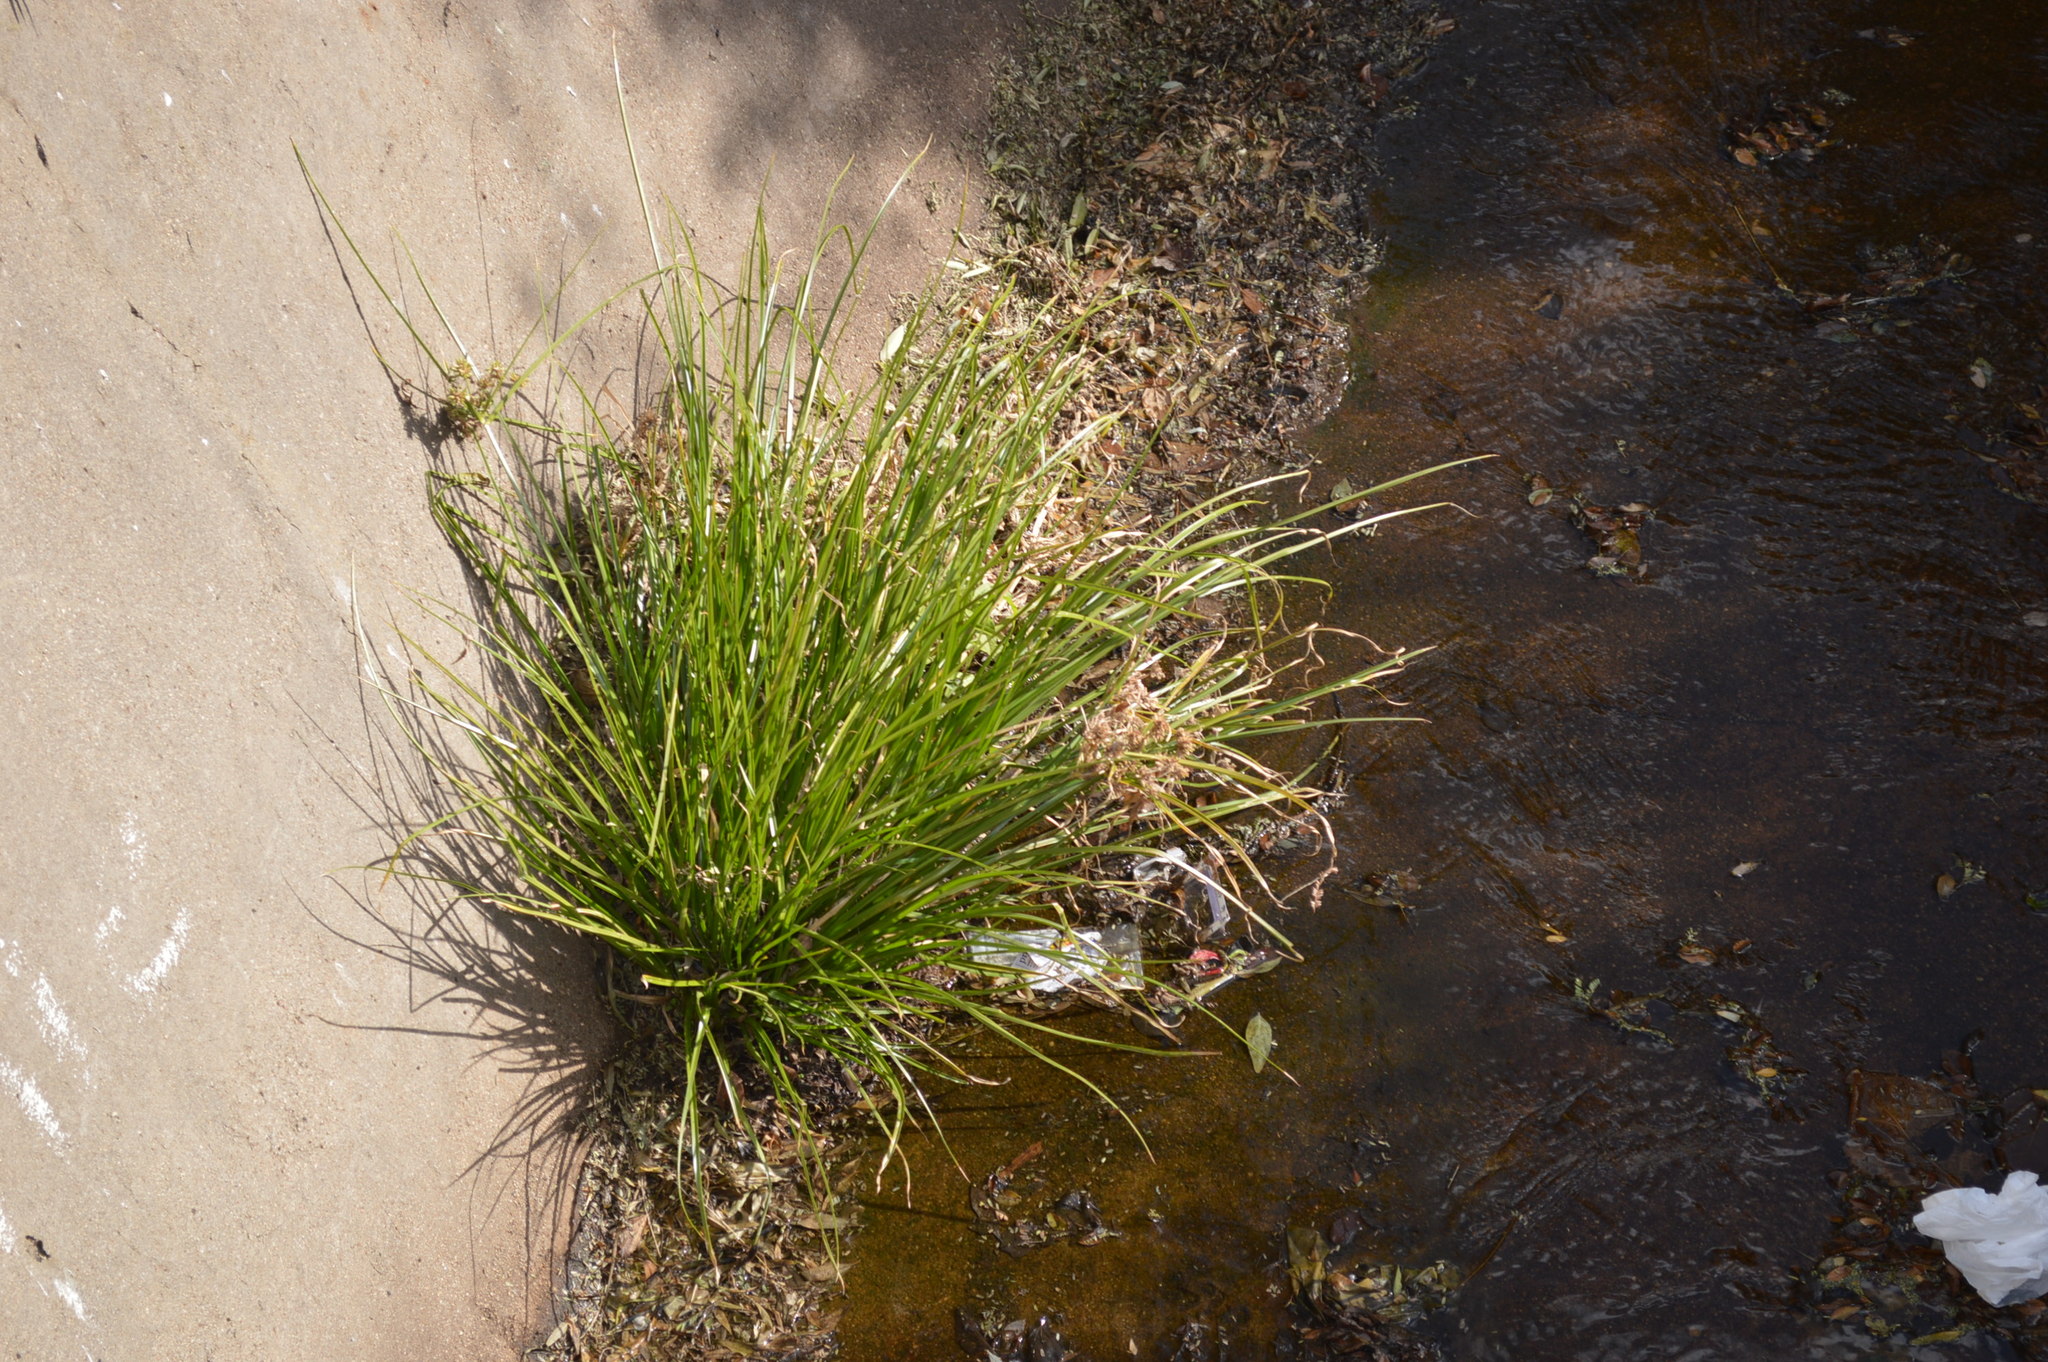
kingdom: Plantae
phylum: Tracheophyta
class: Liliopsida
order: Poales
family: Cyperaceae
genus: Cyperus
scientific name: Cyperus eragrostis
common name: Tall flatsedge
